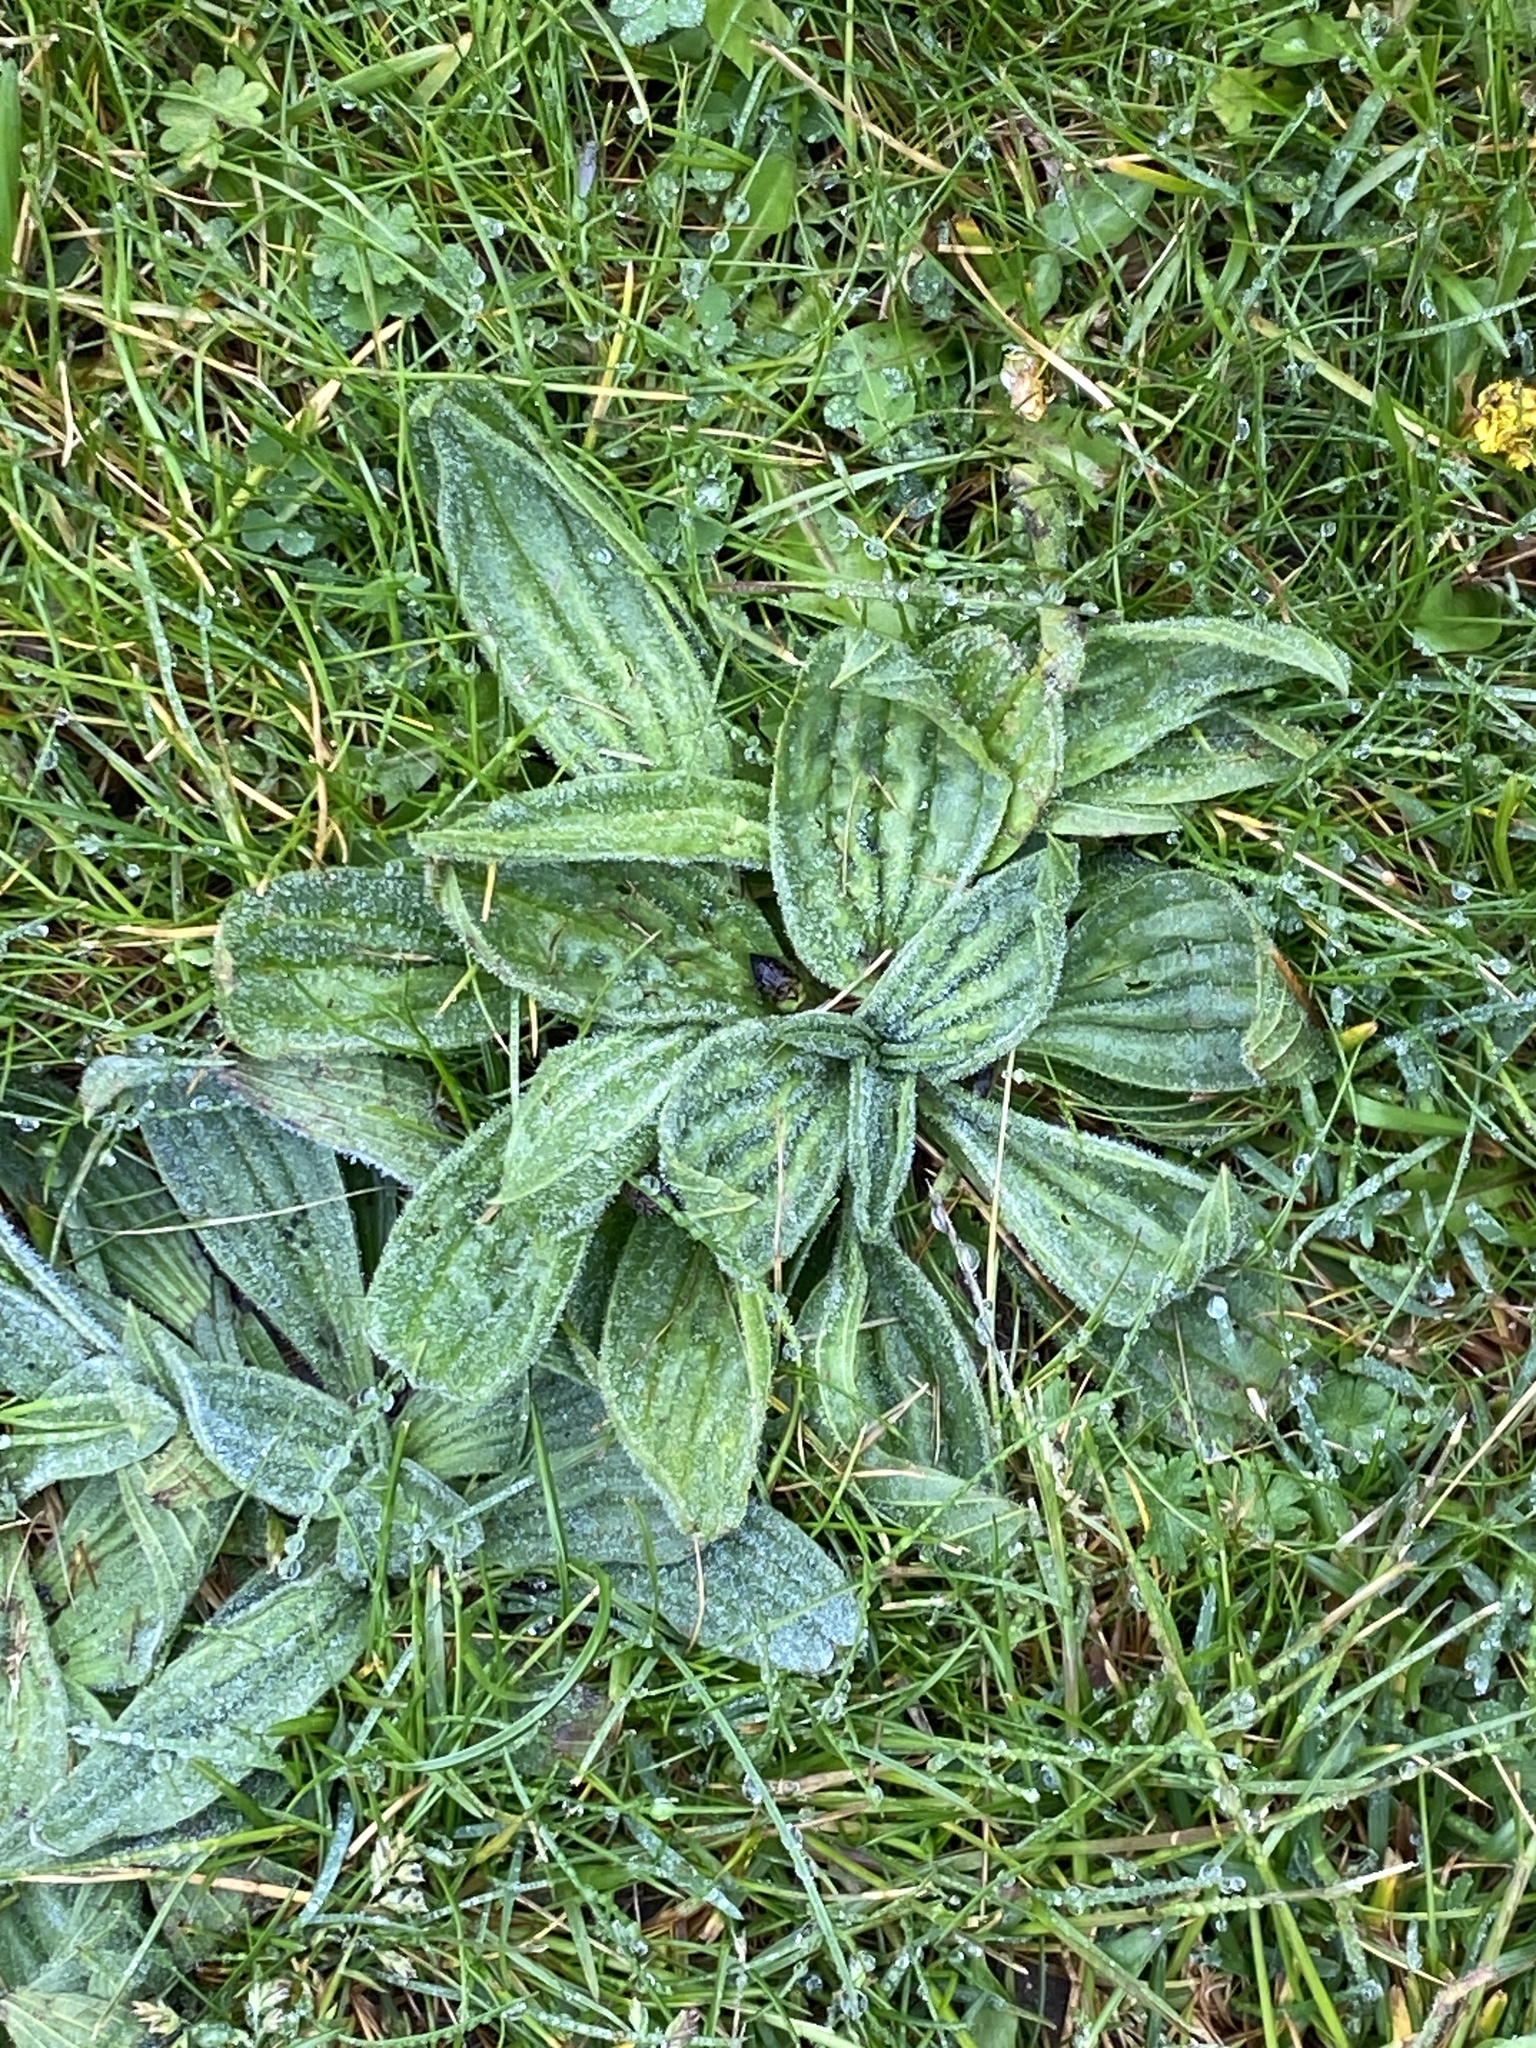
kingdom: Plantae
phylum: Tracheophyta
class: Magnoliopsida
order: Lamiales
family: Plantaginaceae
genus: Plantago
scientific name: Plantago lanceolata
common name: Ribwort plantain
